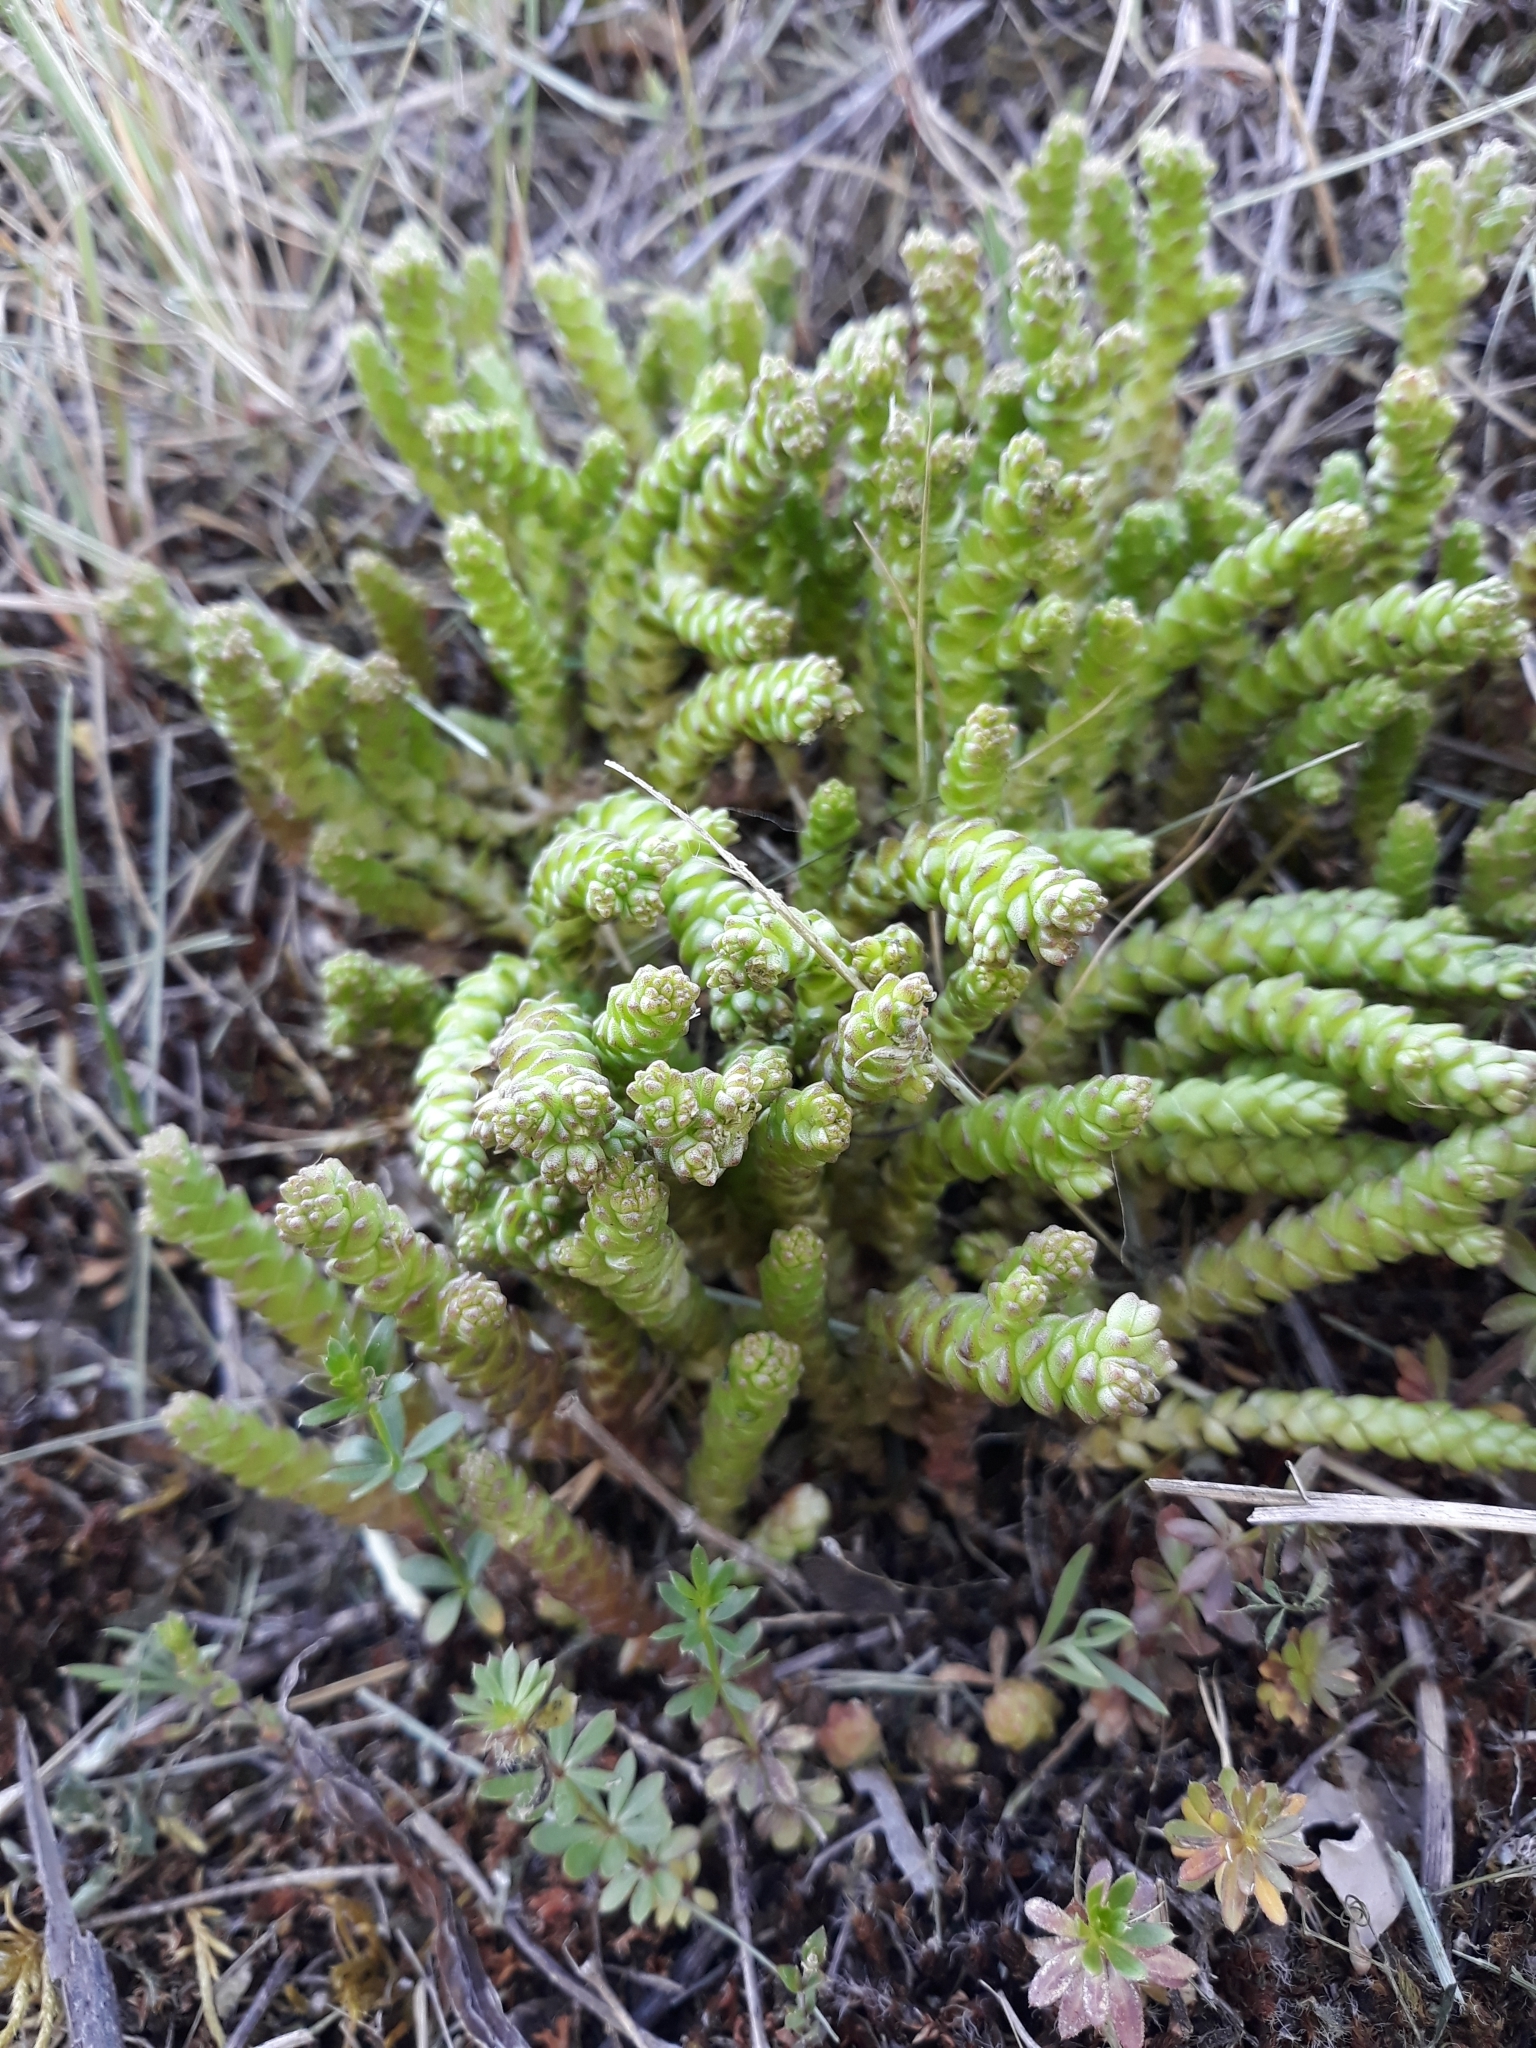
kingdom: Plantae
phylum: Tracheophyta
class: Magnoliopsida
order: Saxifragales
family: Crassulaceae
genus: Sedum
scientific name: Sedum acre
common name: Biting stonecrop
